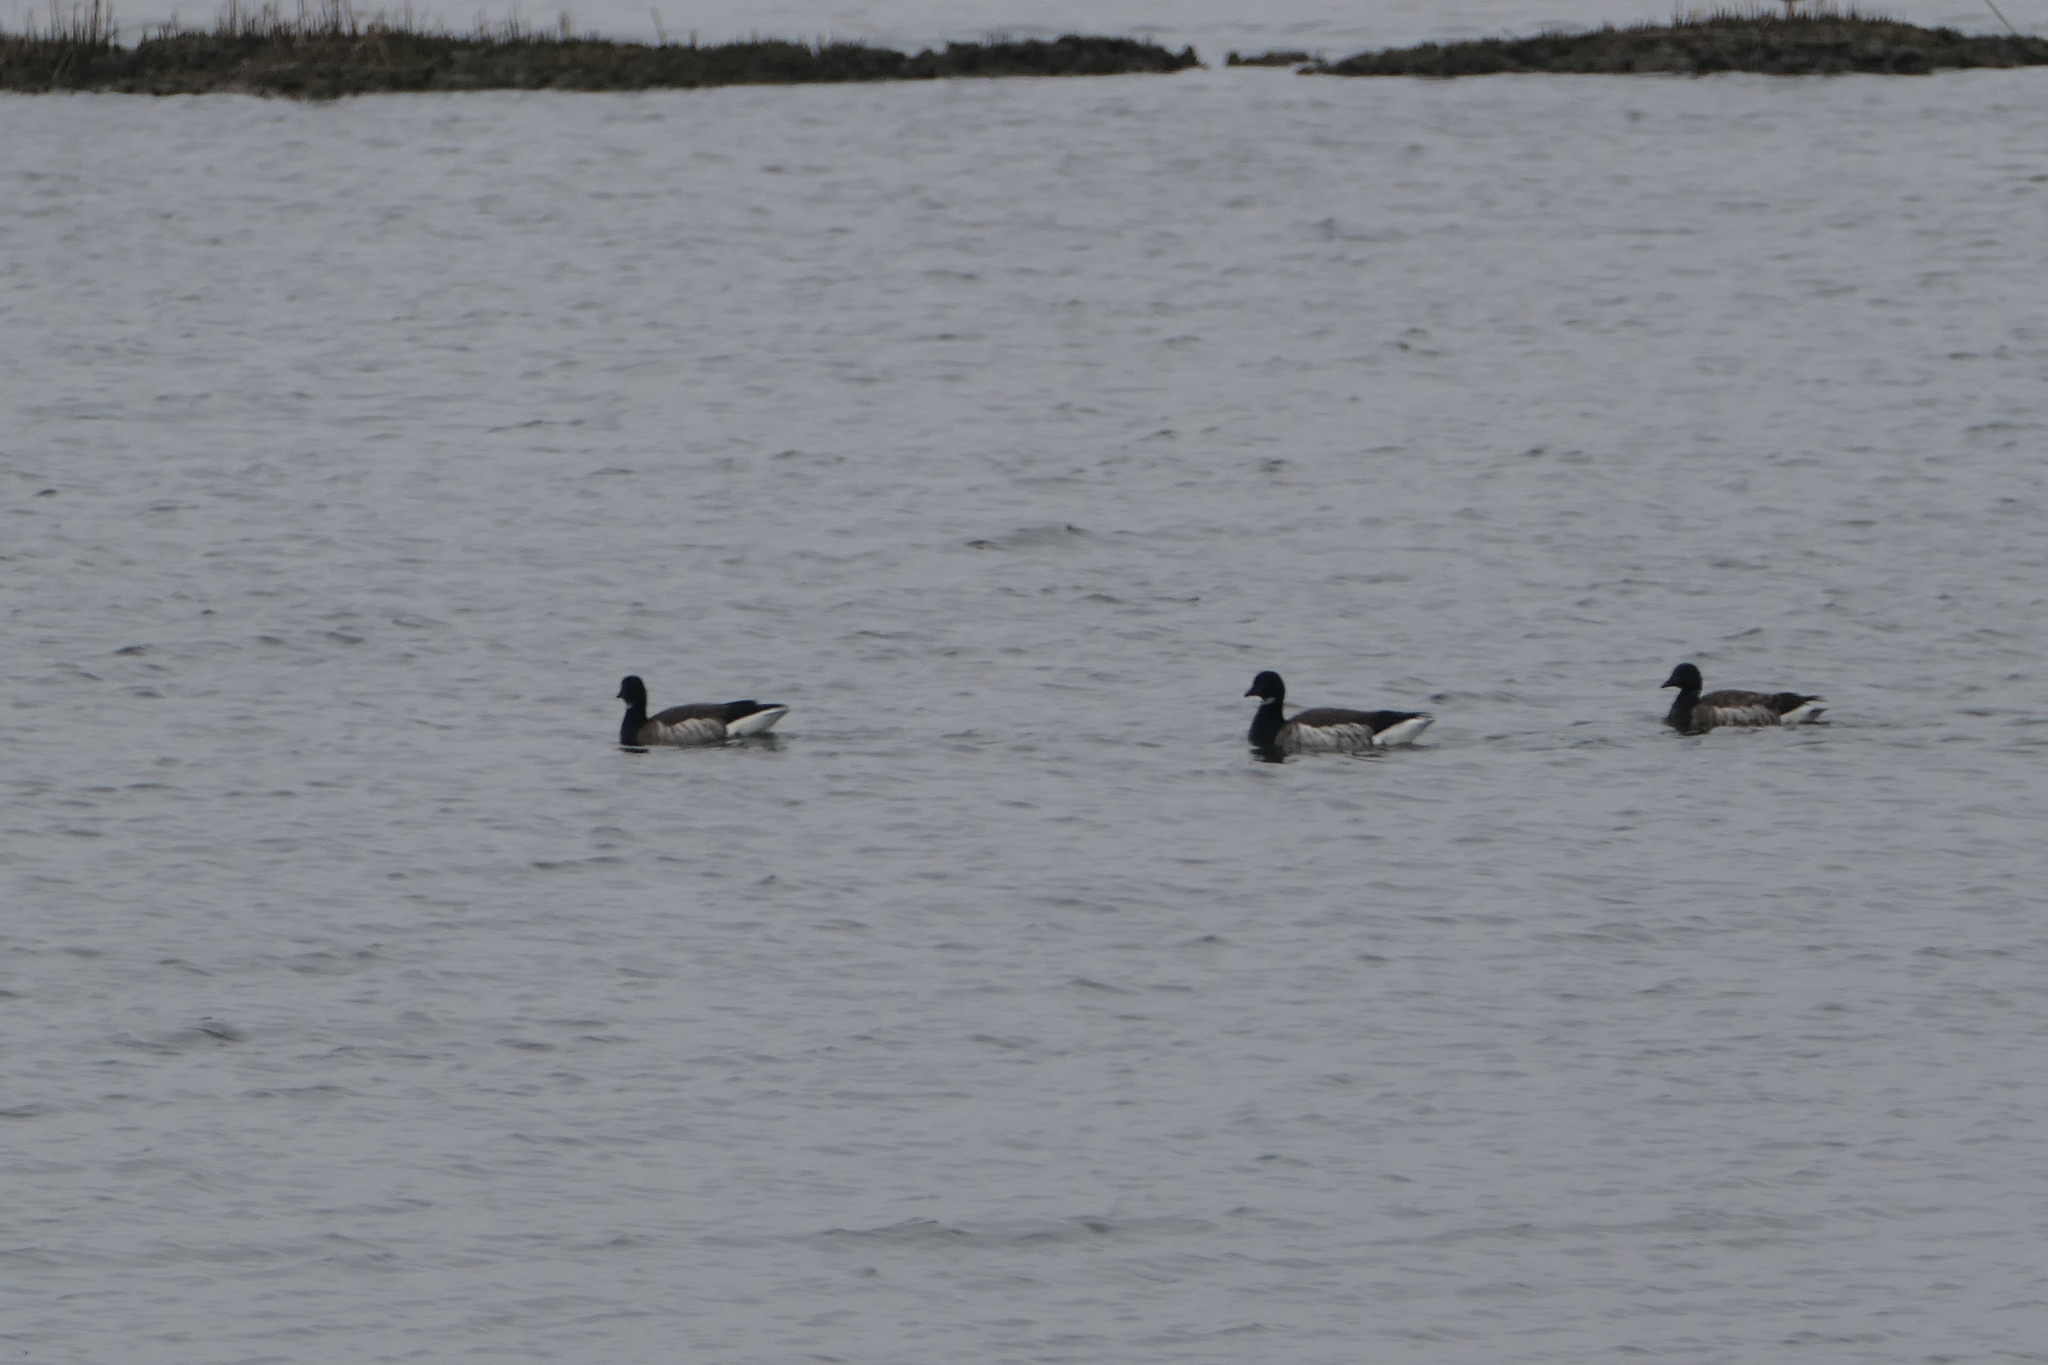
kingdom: Animalia
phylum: Chordata
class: Aves
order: Anseriformes
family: Anatidae
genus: Branta
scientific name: Branta bernicla
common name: Brant goose
